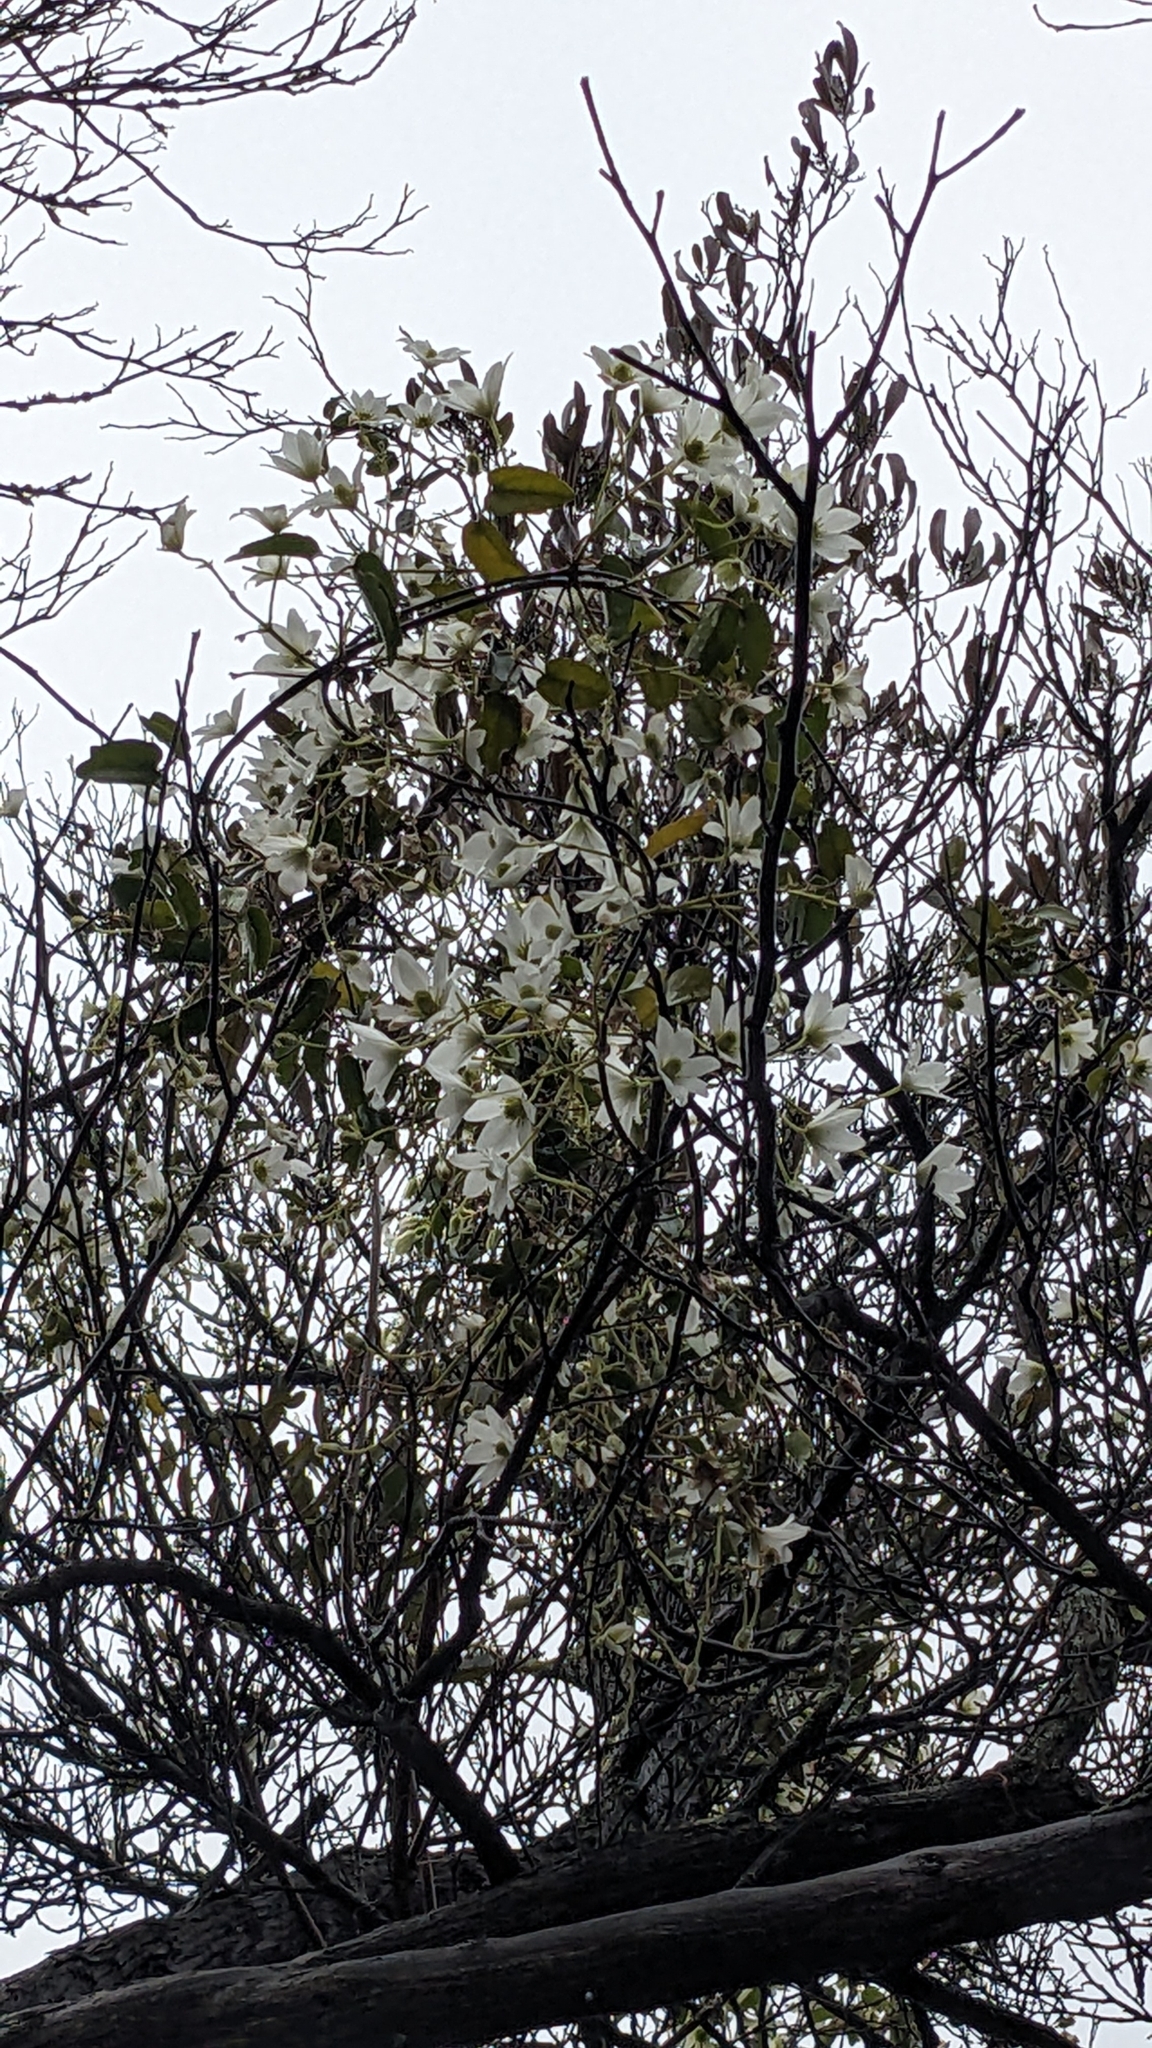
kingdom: Plantae
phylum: Tracheophyta
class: Magnoliopsida
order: Ranunculales
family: Ranunculaceae
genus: Clematis
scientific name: Clematis paniculata
